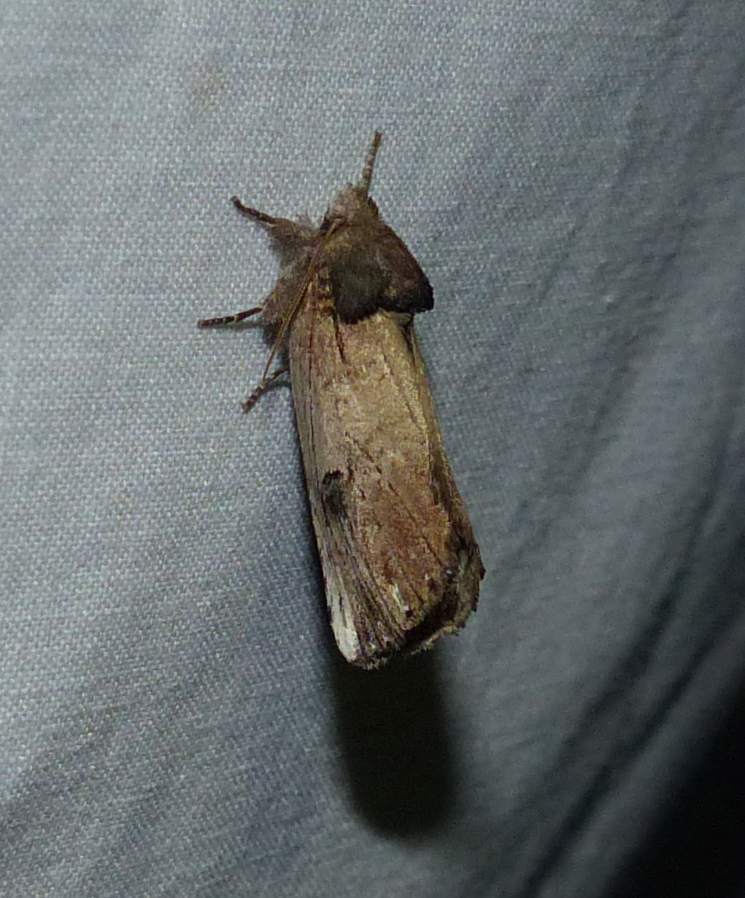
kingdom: Animalia
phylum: Arthropoda
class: Insecta
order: Lepidoptera
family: Notodontidae
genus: Schizura
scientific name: Schizura badia
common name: Chestnut schizura
